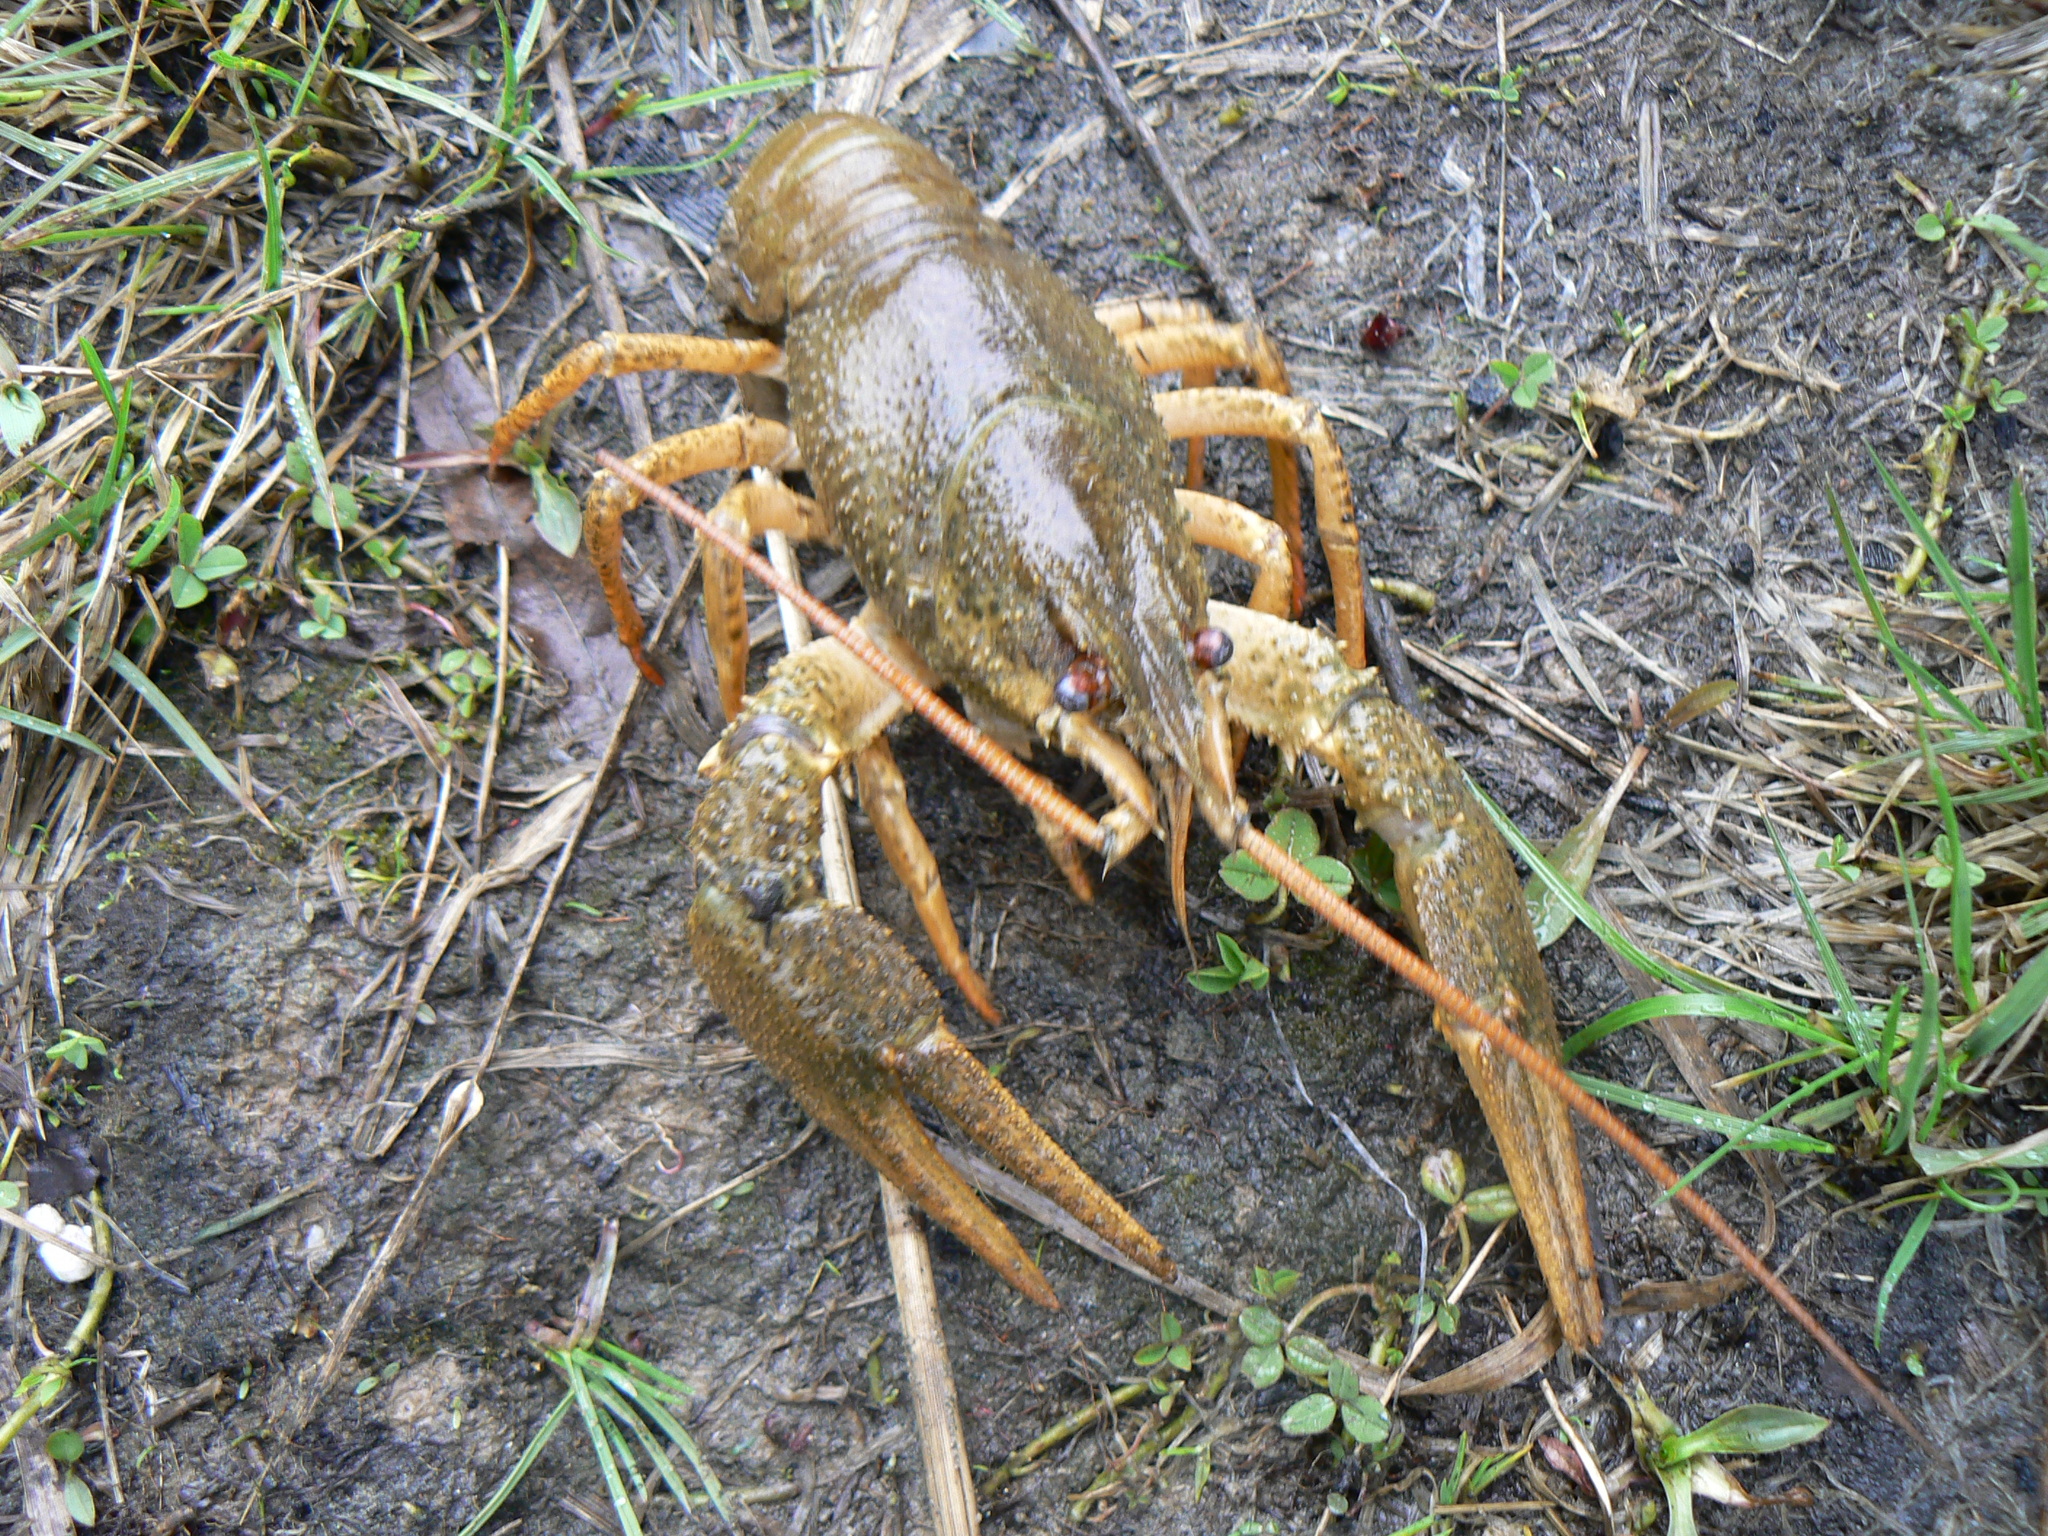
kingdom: Animalia
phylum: Arthropoda
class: Malacostraca
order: Decapoda
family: Astacidae
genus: Pontastacus
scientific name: Pontastacus leptodactylus
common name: Danube crayfish
